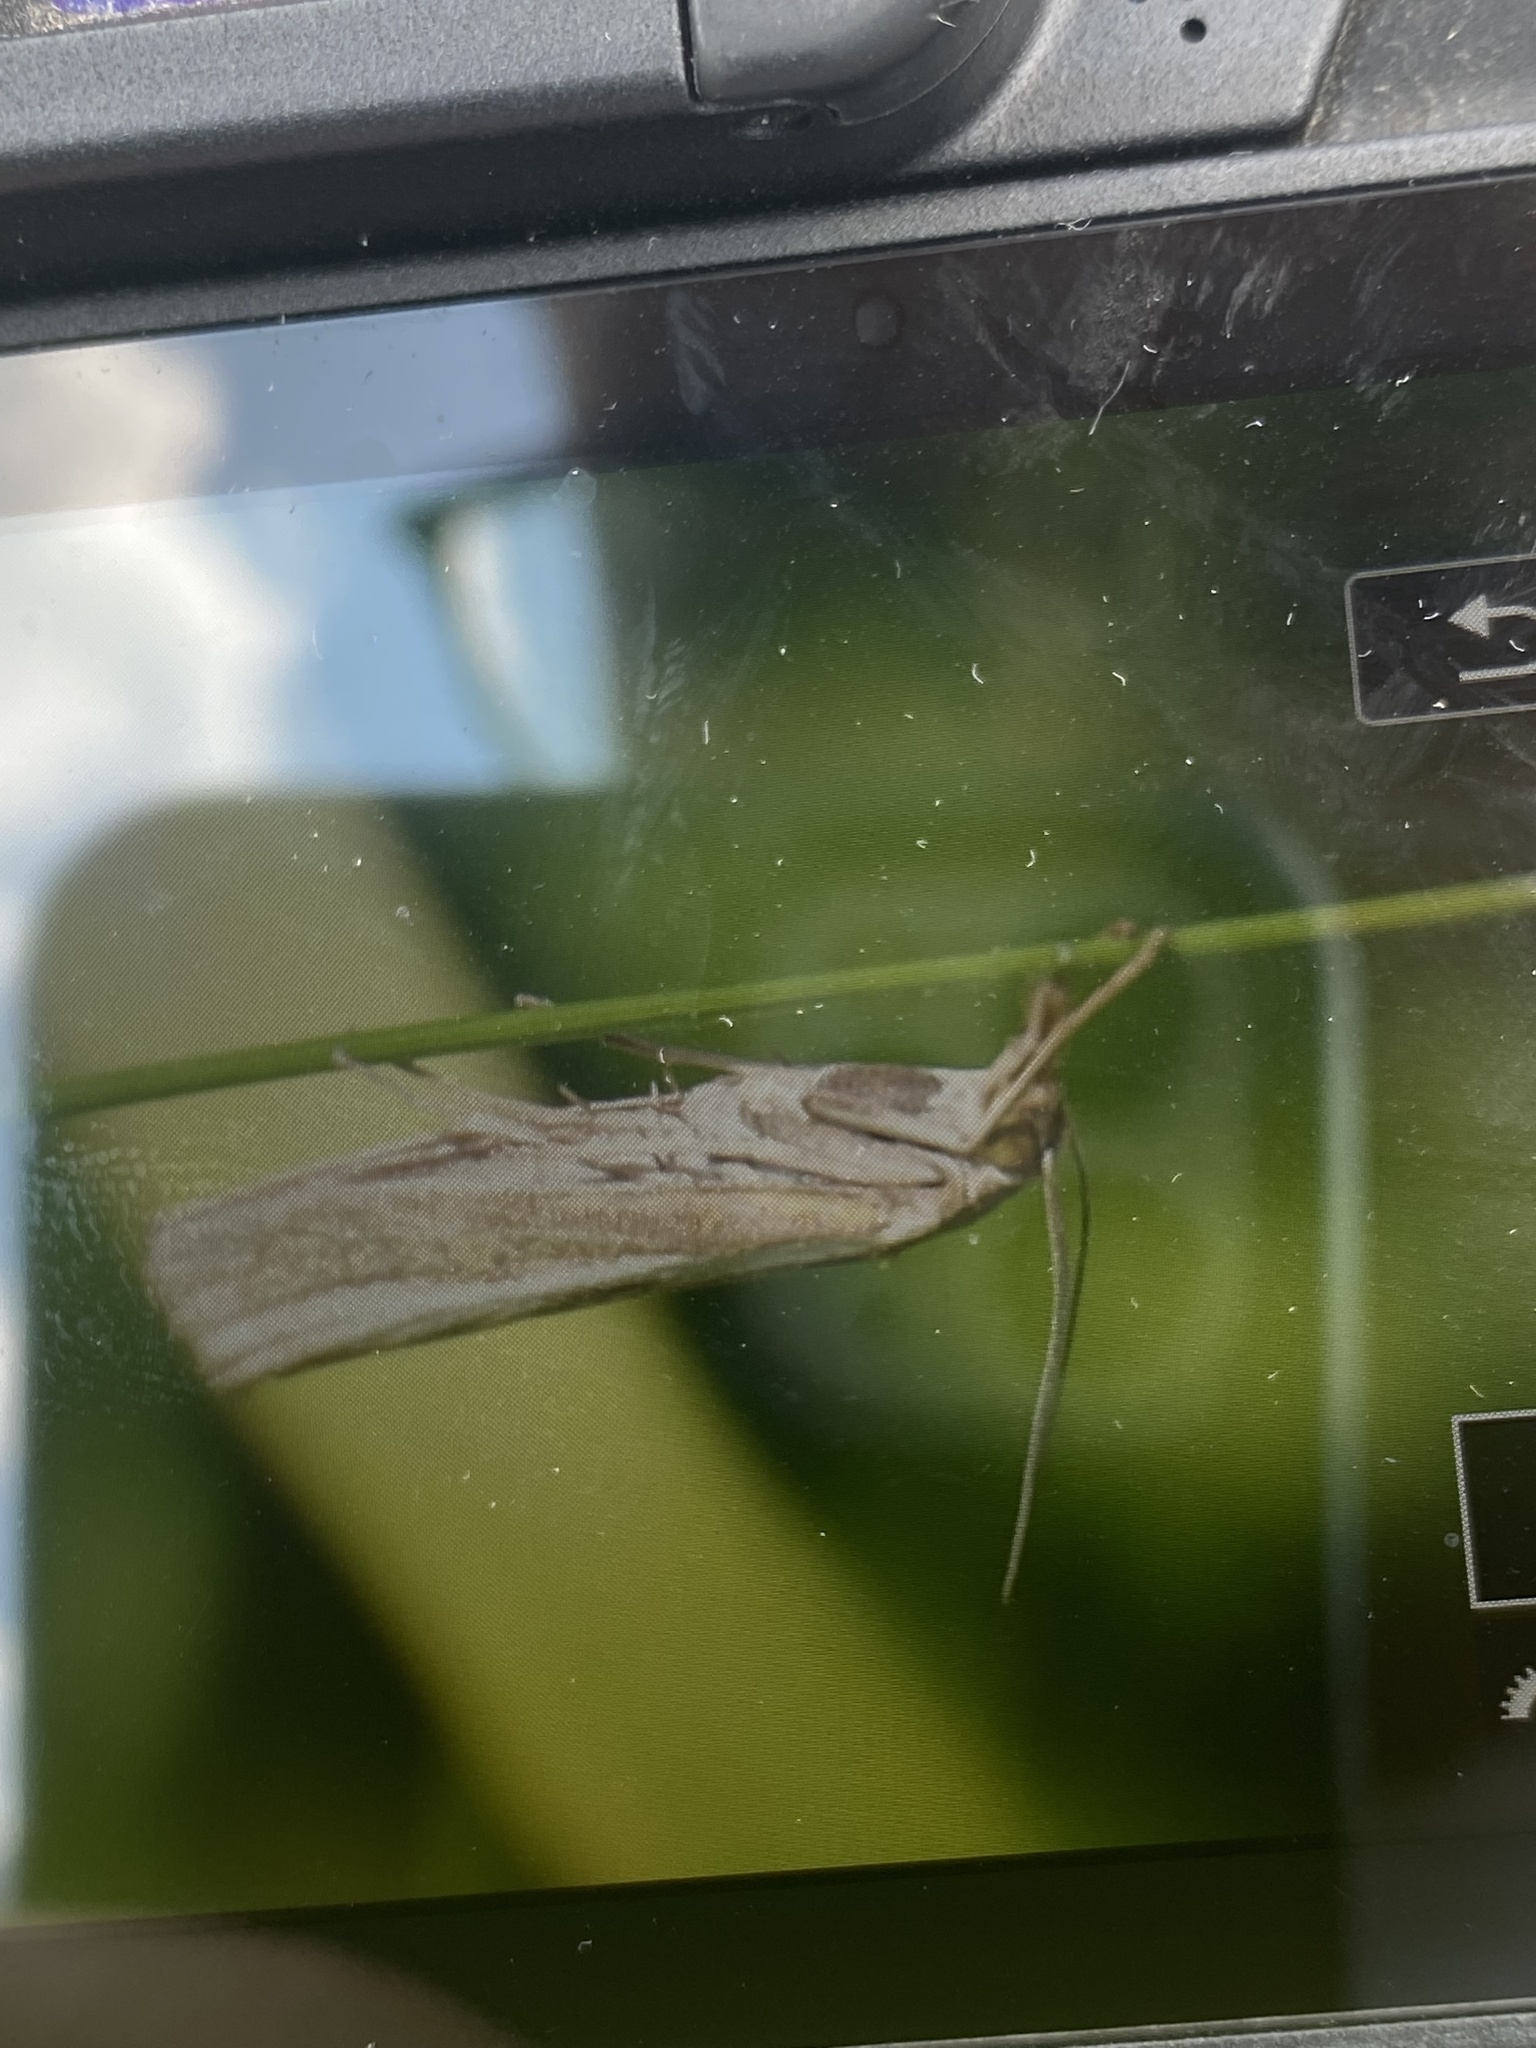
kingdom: Animalia
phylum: Arthropoda
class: Insecta
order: Lepidoptera
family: Crambidae
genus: Agriphila
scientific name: Agriphila tristellus
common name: Common grass-veneer
